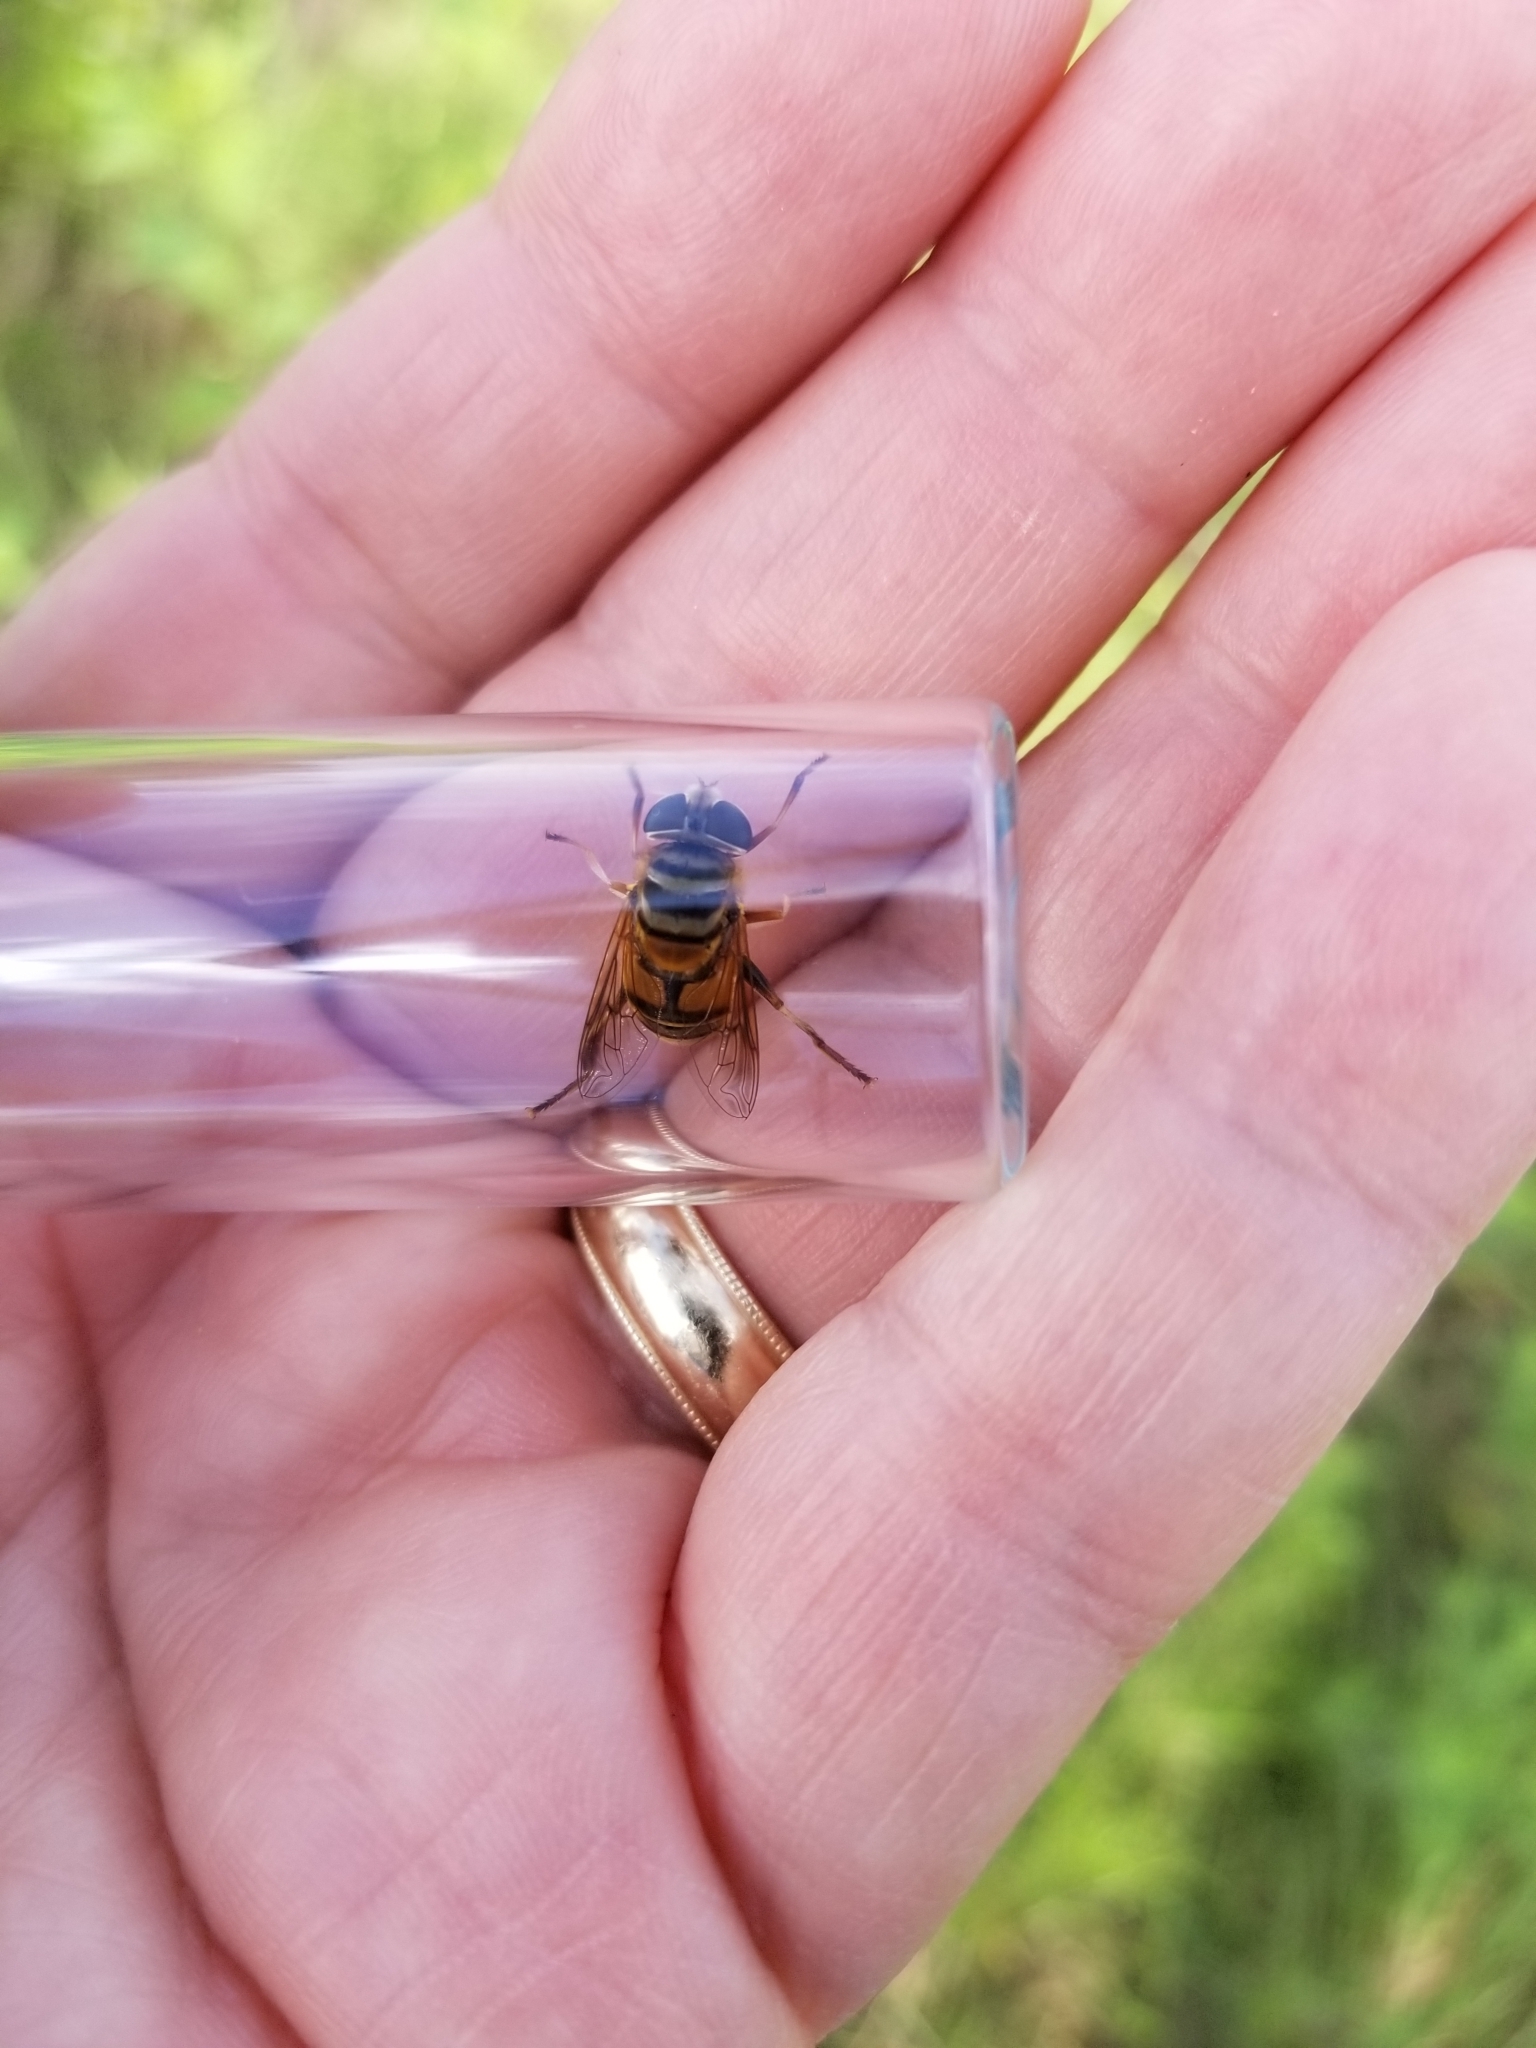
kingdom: Animalia
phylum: Arthropoda
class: Insecta
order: Diptera
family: Syrphidae
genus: Palpada
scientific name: Palpada vinetorum
